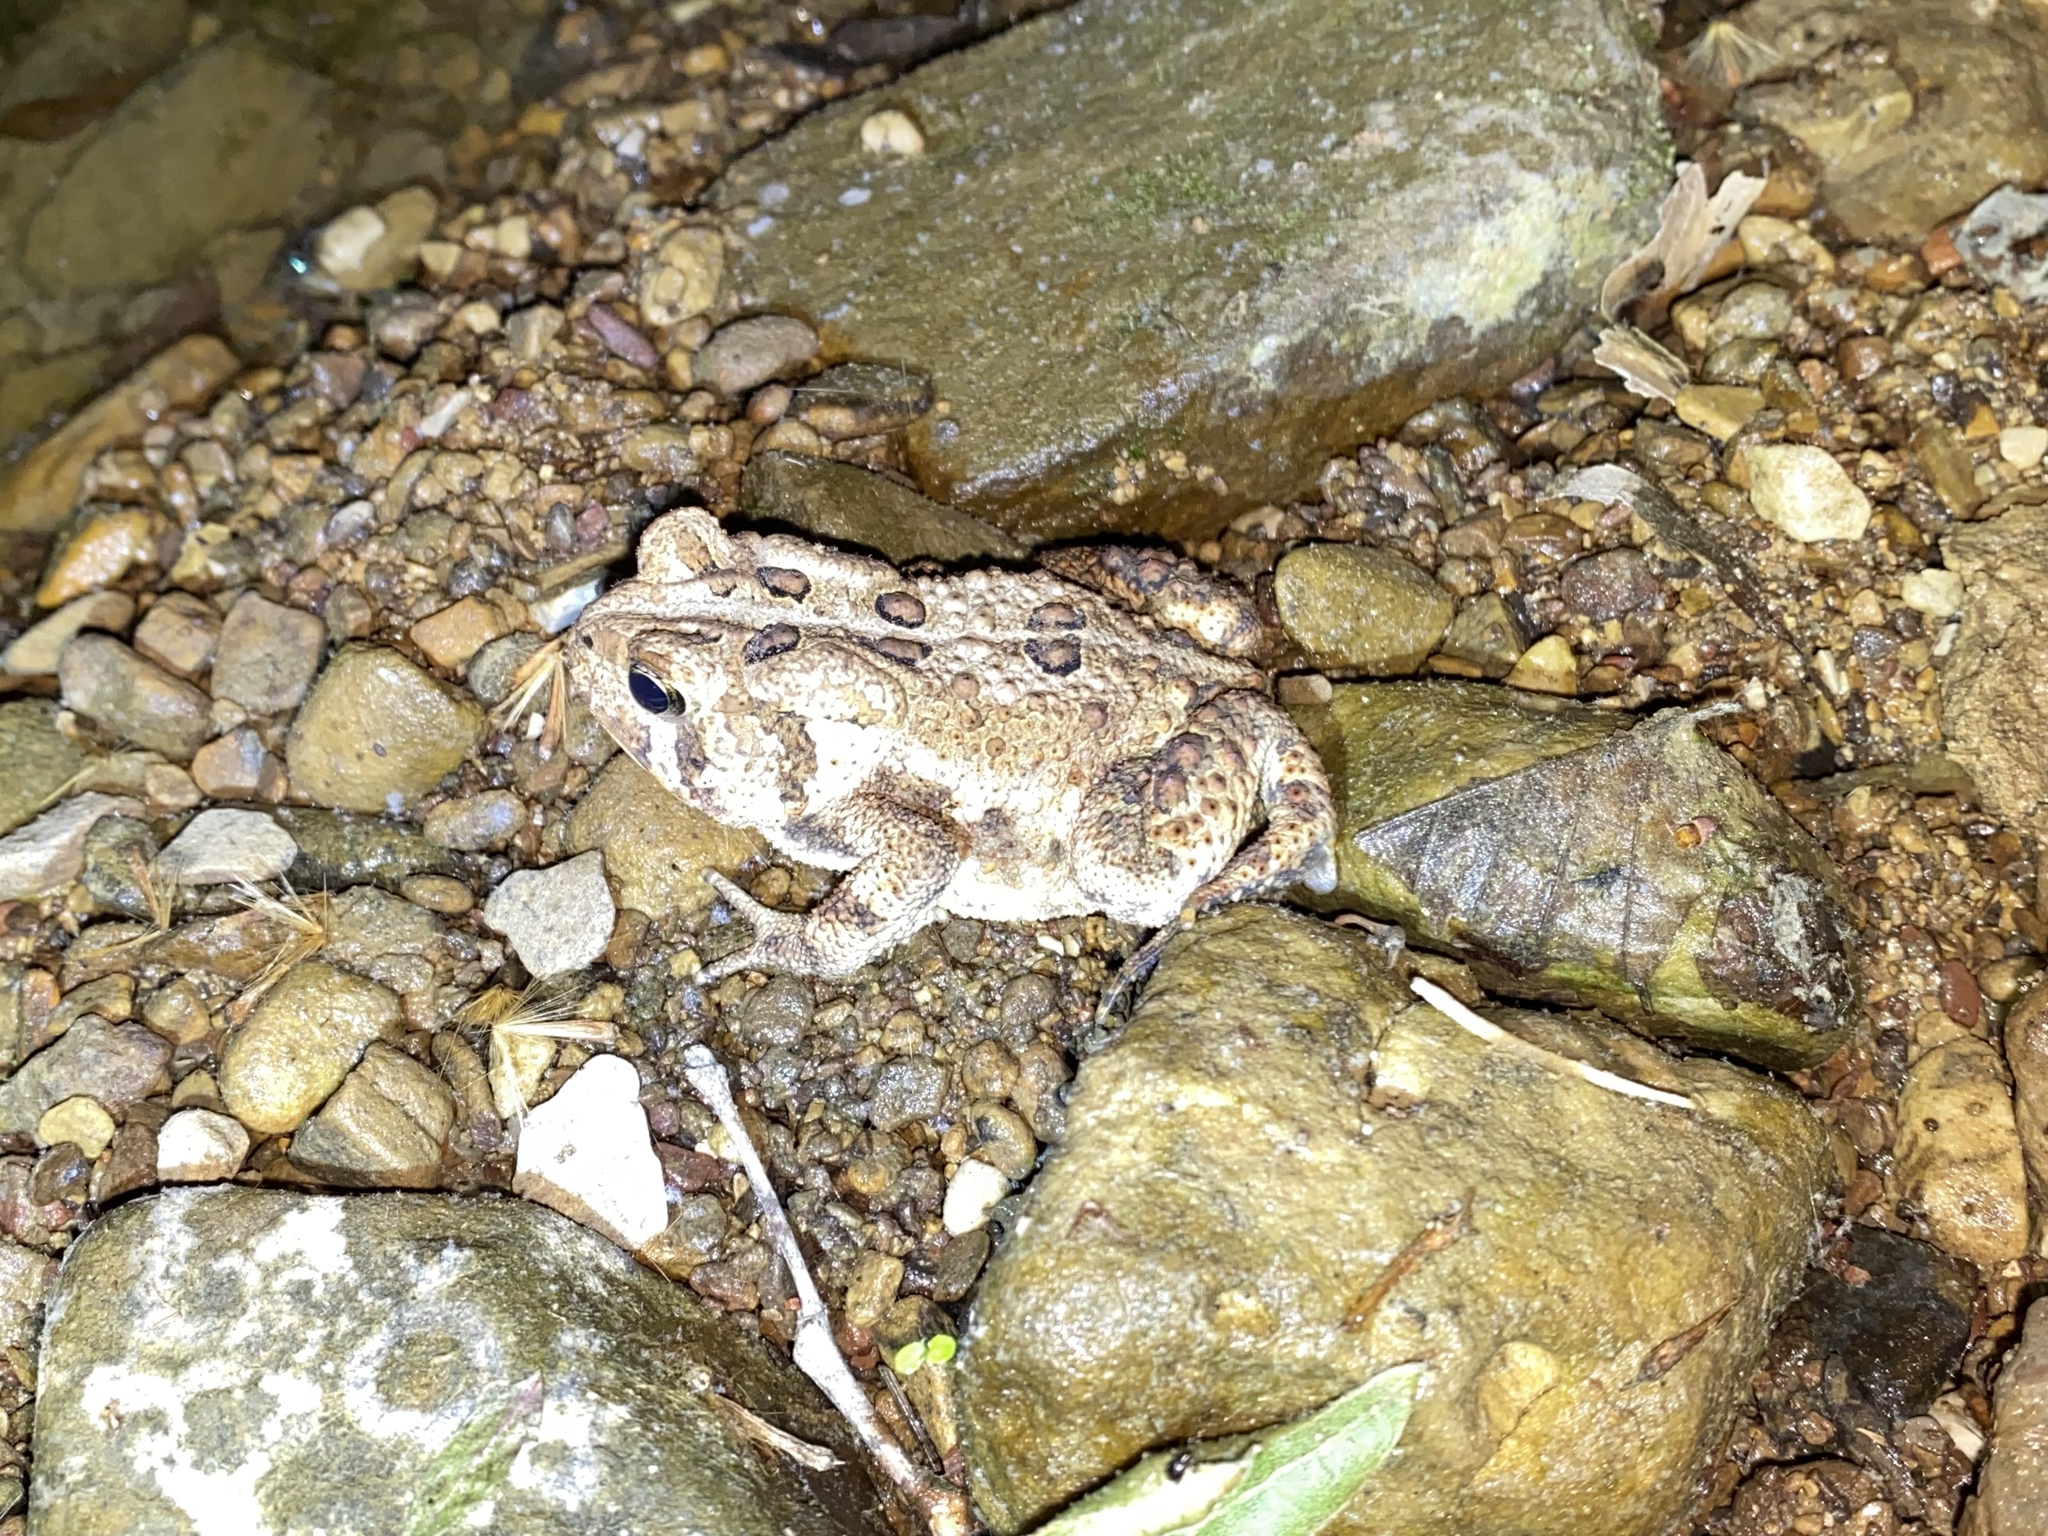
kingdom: Animalia
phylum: Chordata
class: Amphibia
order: Anura
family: Bufonidae
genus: Anaxyrus
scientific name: Anaxyrus fowleri
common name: Fowler's toad
